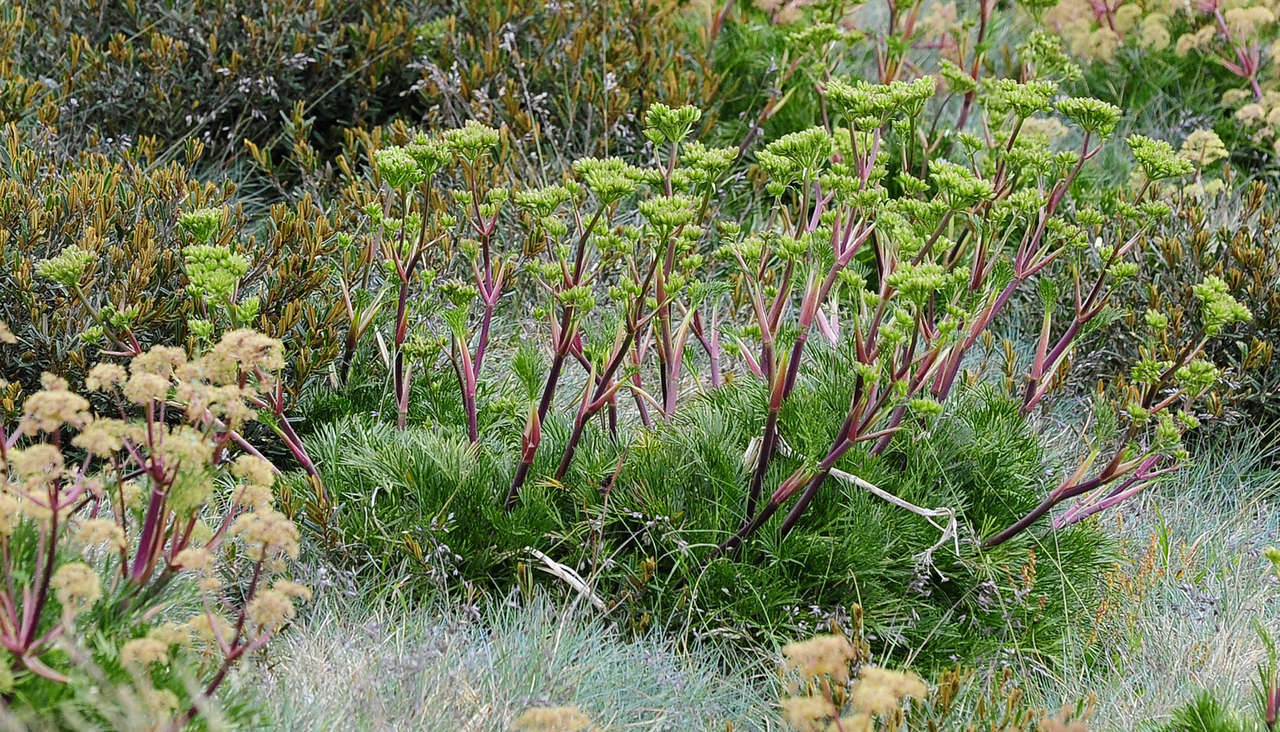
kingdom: Plantae
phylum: Tracheophyta
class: Magnoliopsida
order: Apiales
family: Apiaceae
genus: Aciphylla
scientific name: Aciphylla glacialis
